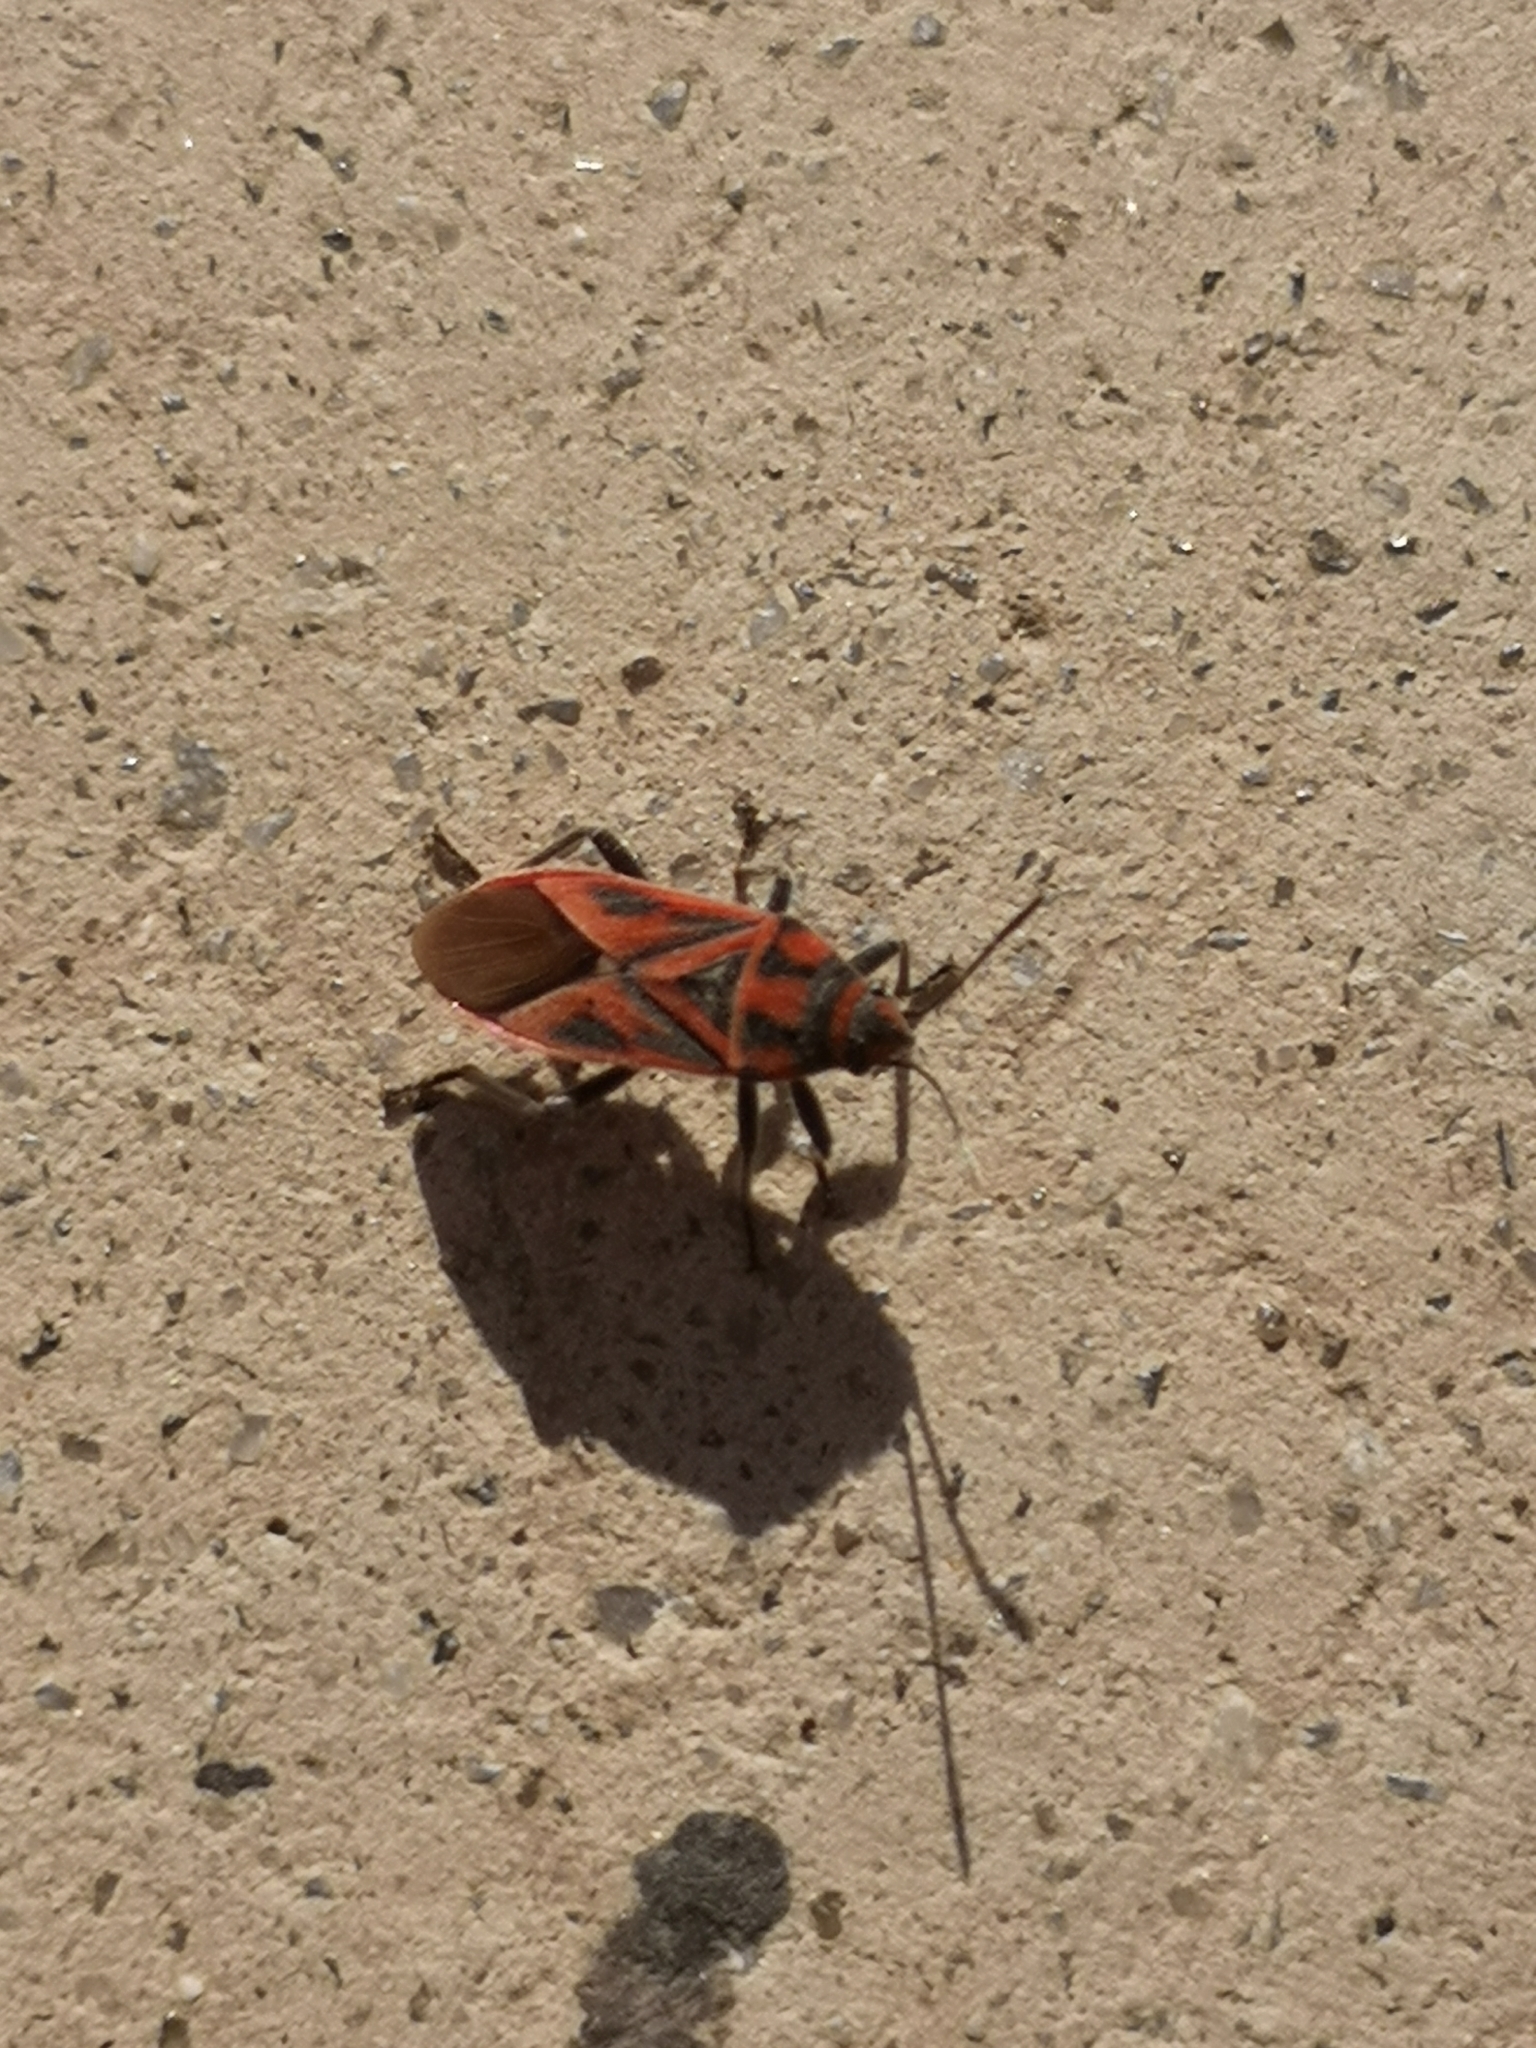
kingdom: Animalia
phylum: Arthropoda
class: Insecta
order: Hemiptera
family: Lygaeidae
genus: Graptostethus
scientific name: Graptostethus servus
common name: Lygaeid bug
